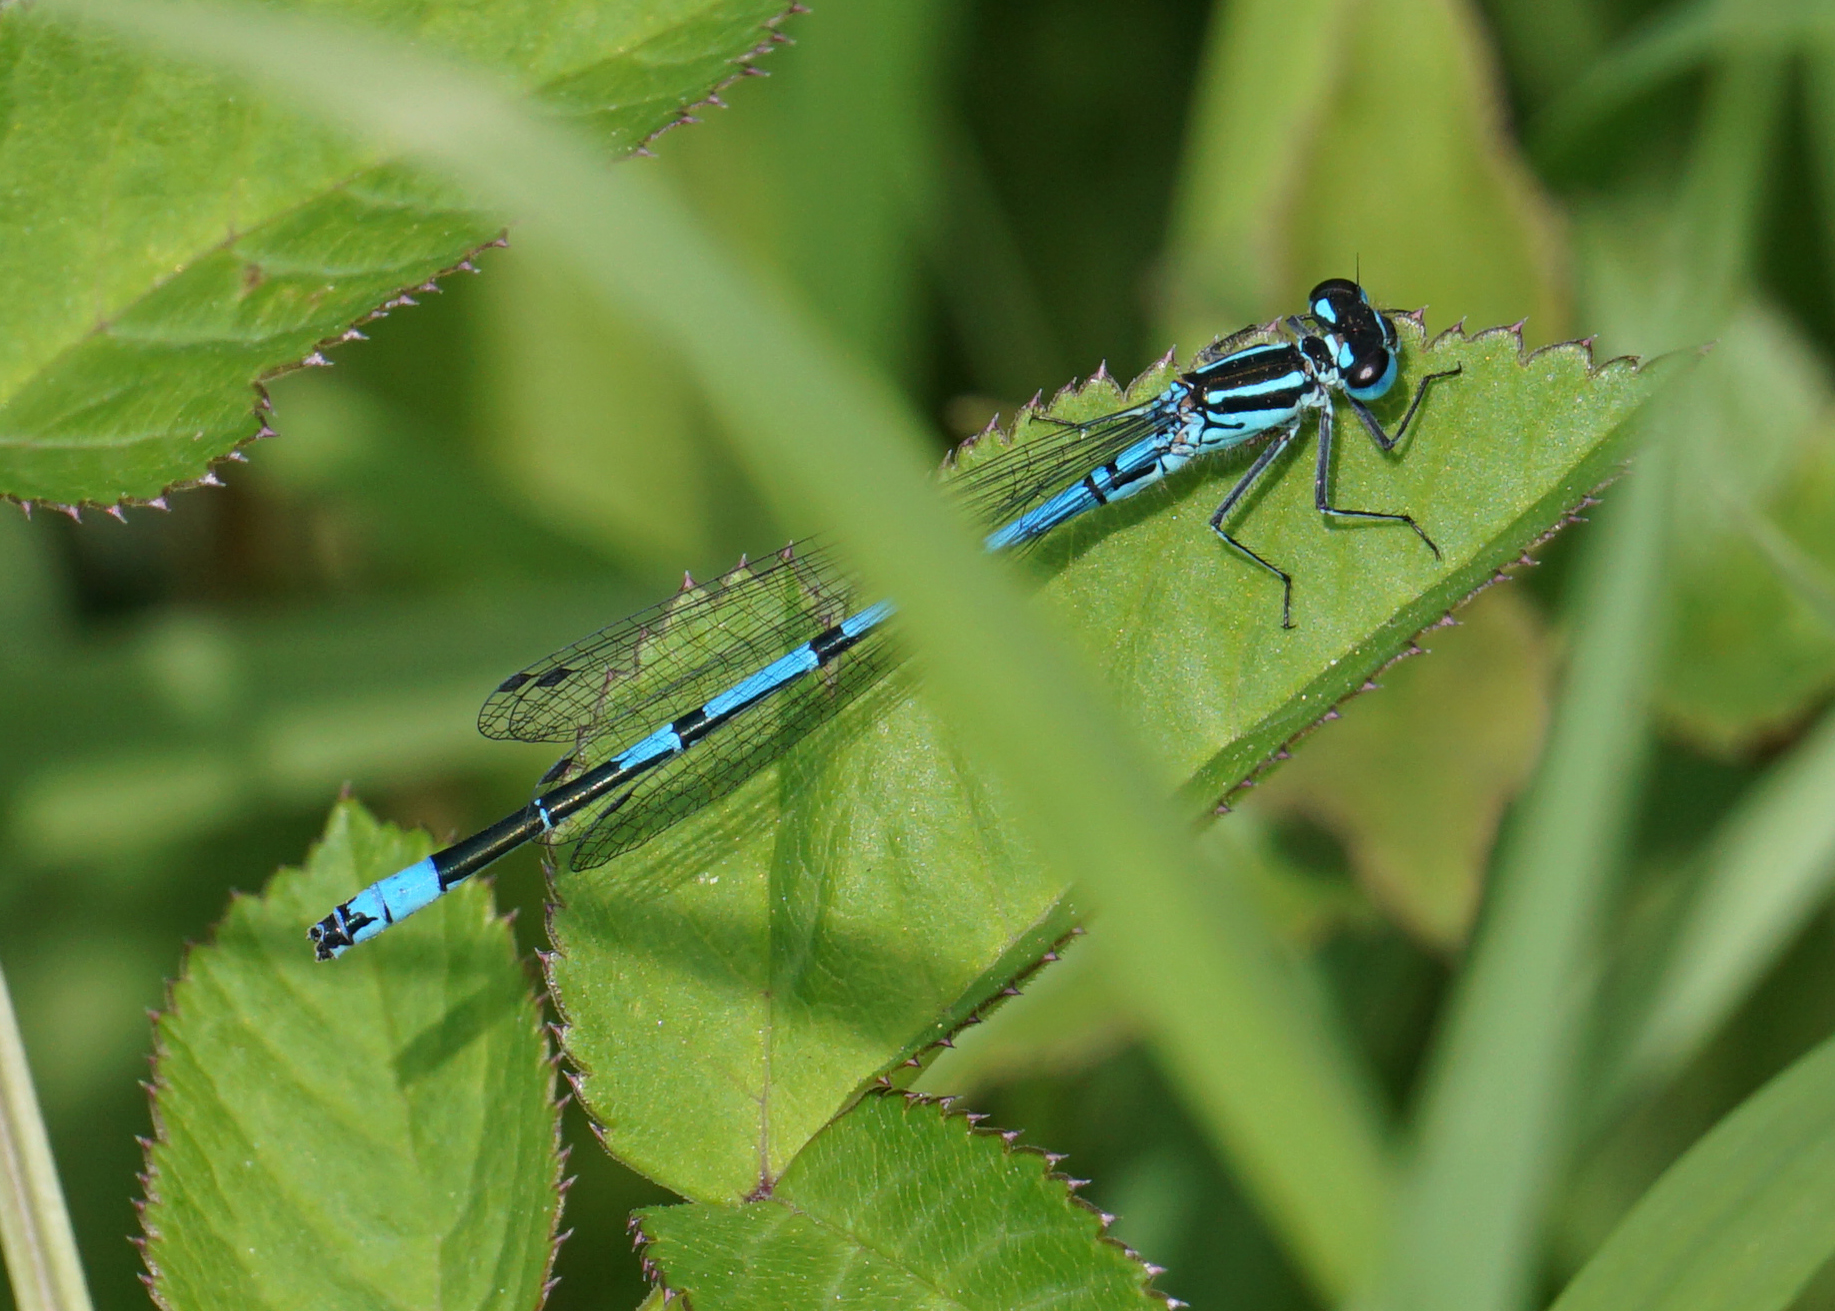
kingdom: Animalia
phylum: Arthropoda
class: Insecta
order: Odonata
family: Coenagrionidae
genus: Coenagrion
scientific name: Coenagrion puella
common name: Azure damselfly
